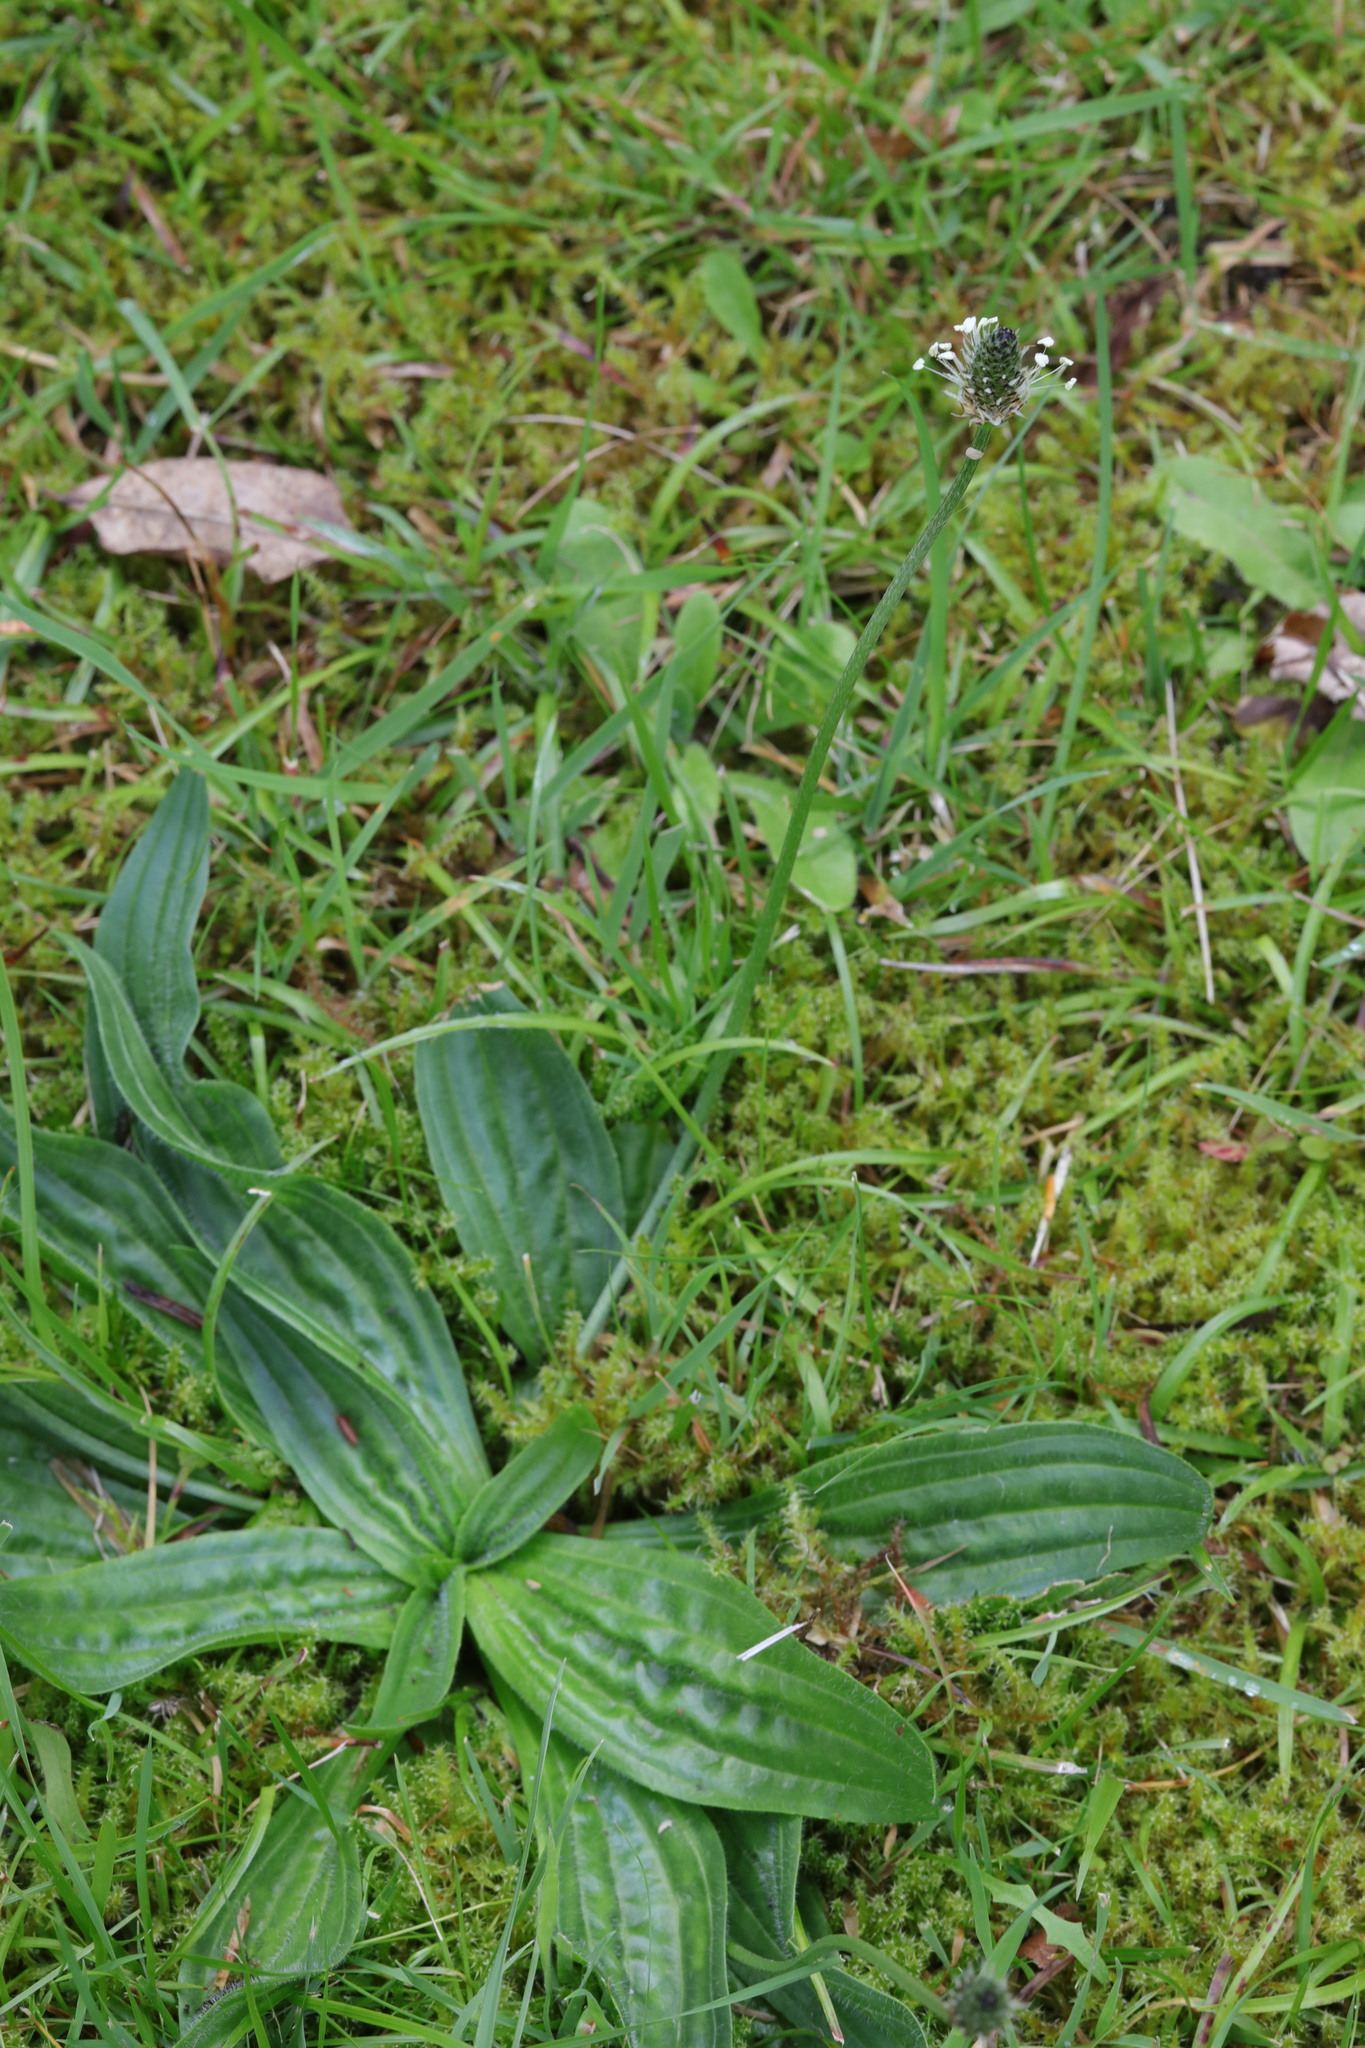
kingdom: Plantae
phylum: Tracheophyta
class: Magnoliopsida
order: Lamiales
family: Plantaginaceae
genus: Plantago
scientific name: Plantago lanceolata
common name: Ribwort plantain
